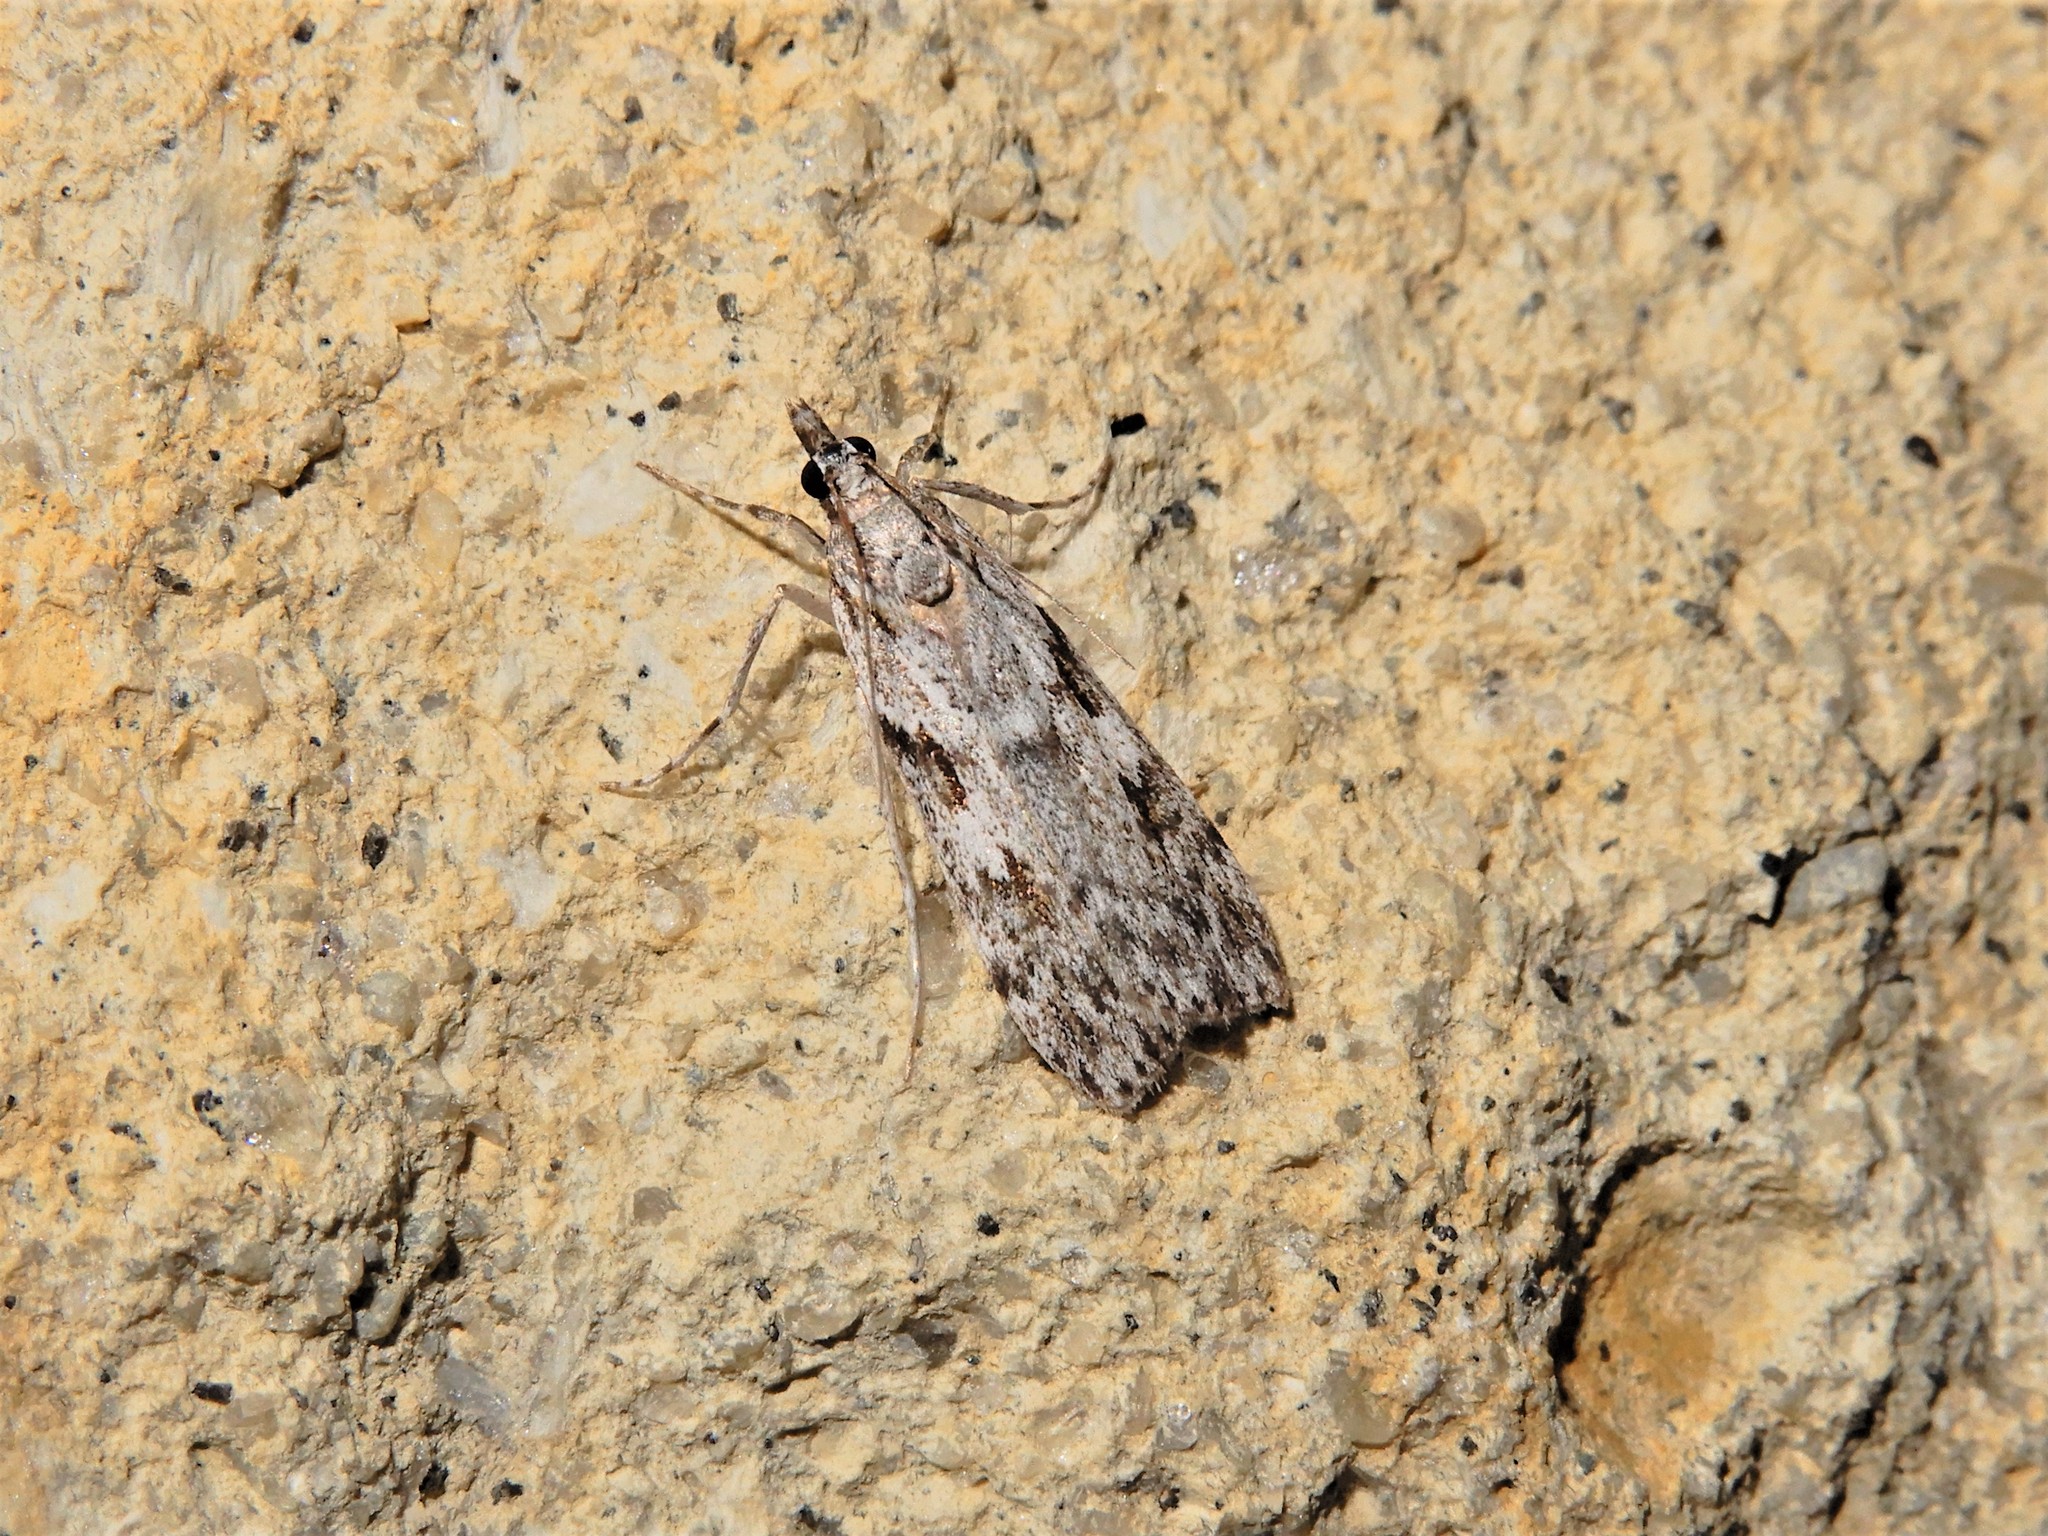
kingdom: Animalia
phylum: Arthropoda
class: Insecta
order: Lepidoptera
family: Crambidae
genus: Scoparia
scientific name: Scoparia halopis
